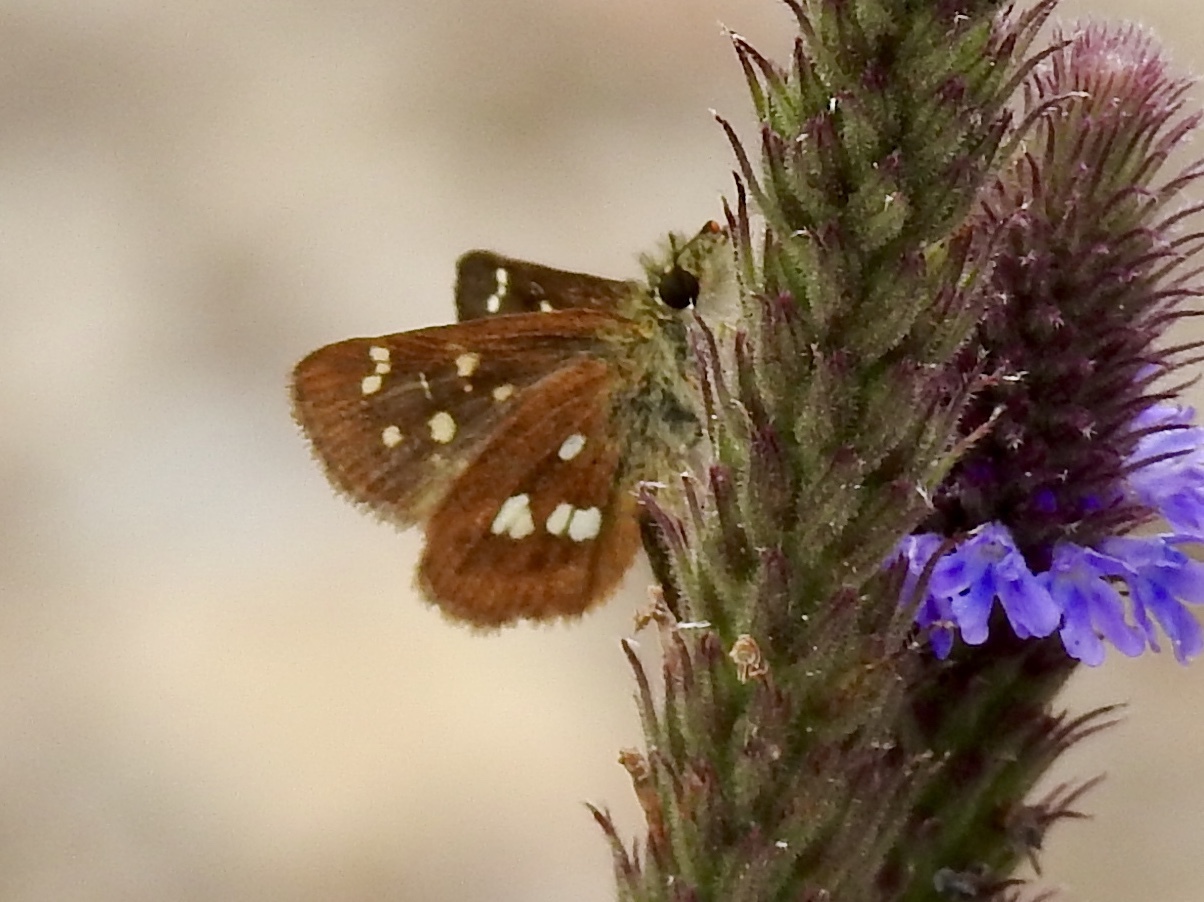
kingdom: Animalia
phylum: Arthropoda
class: Insecta
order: Lepidoptera
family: Hesperiidae
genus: Piruna
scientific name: Piruna polingii
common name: Four-spotted skipperling
